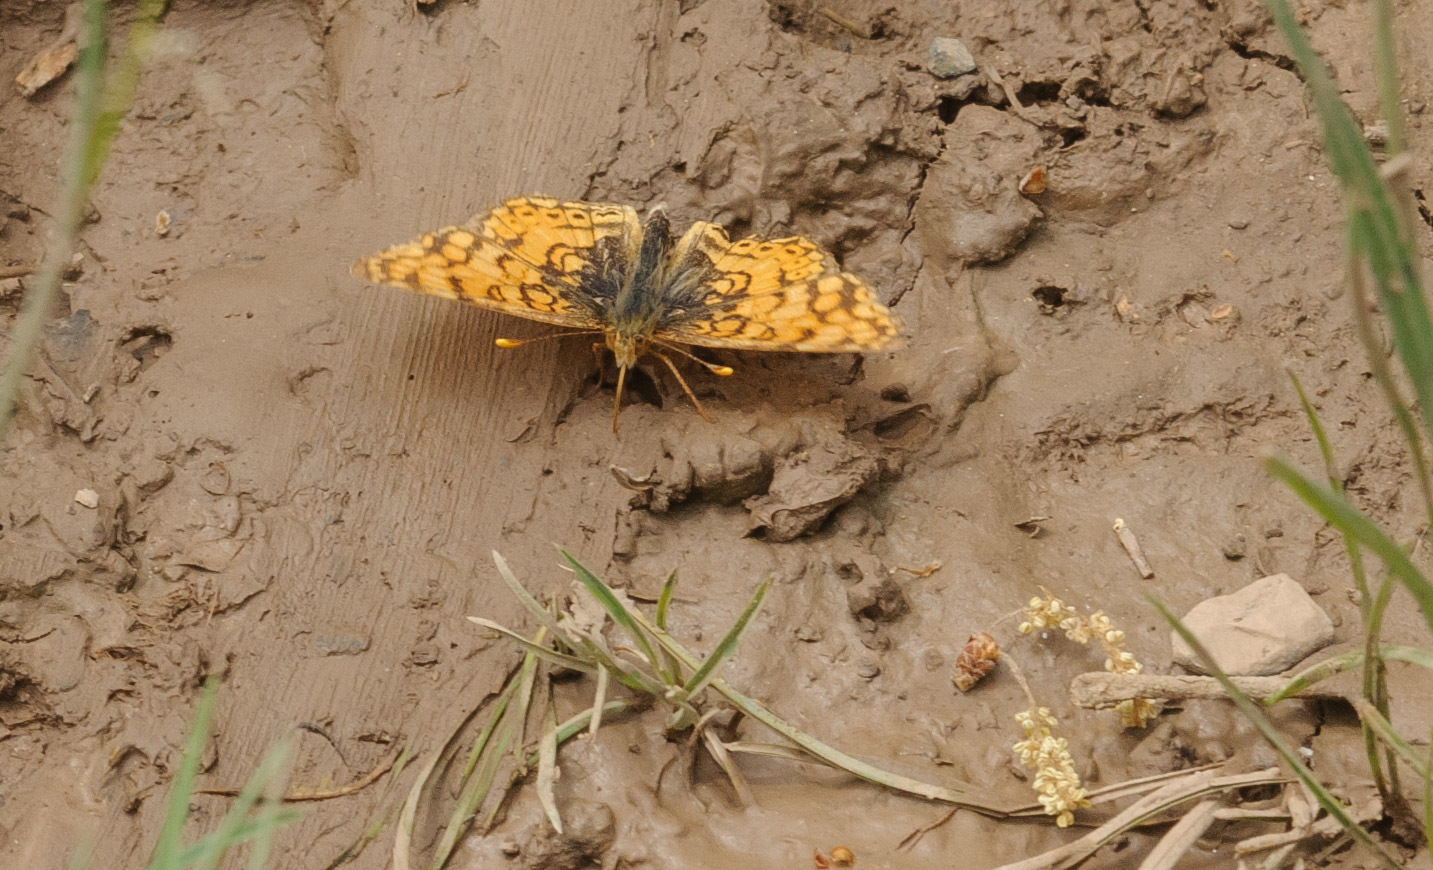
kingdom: Animalia
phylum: Arthropoda
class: Insecta
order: Lepidoptera
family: Nymphalidae
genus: Eresia
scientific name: Eresia aveyrona
